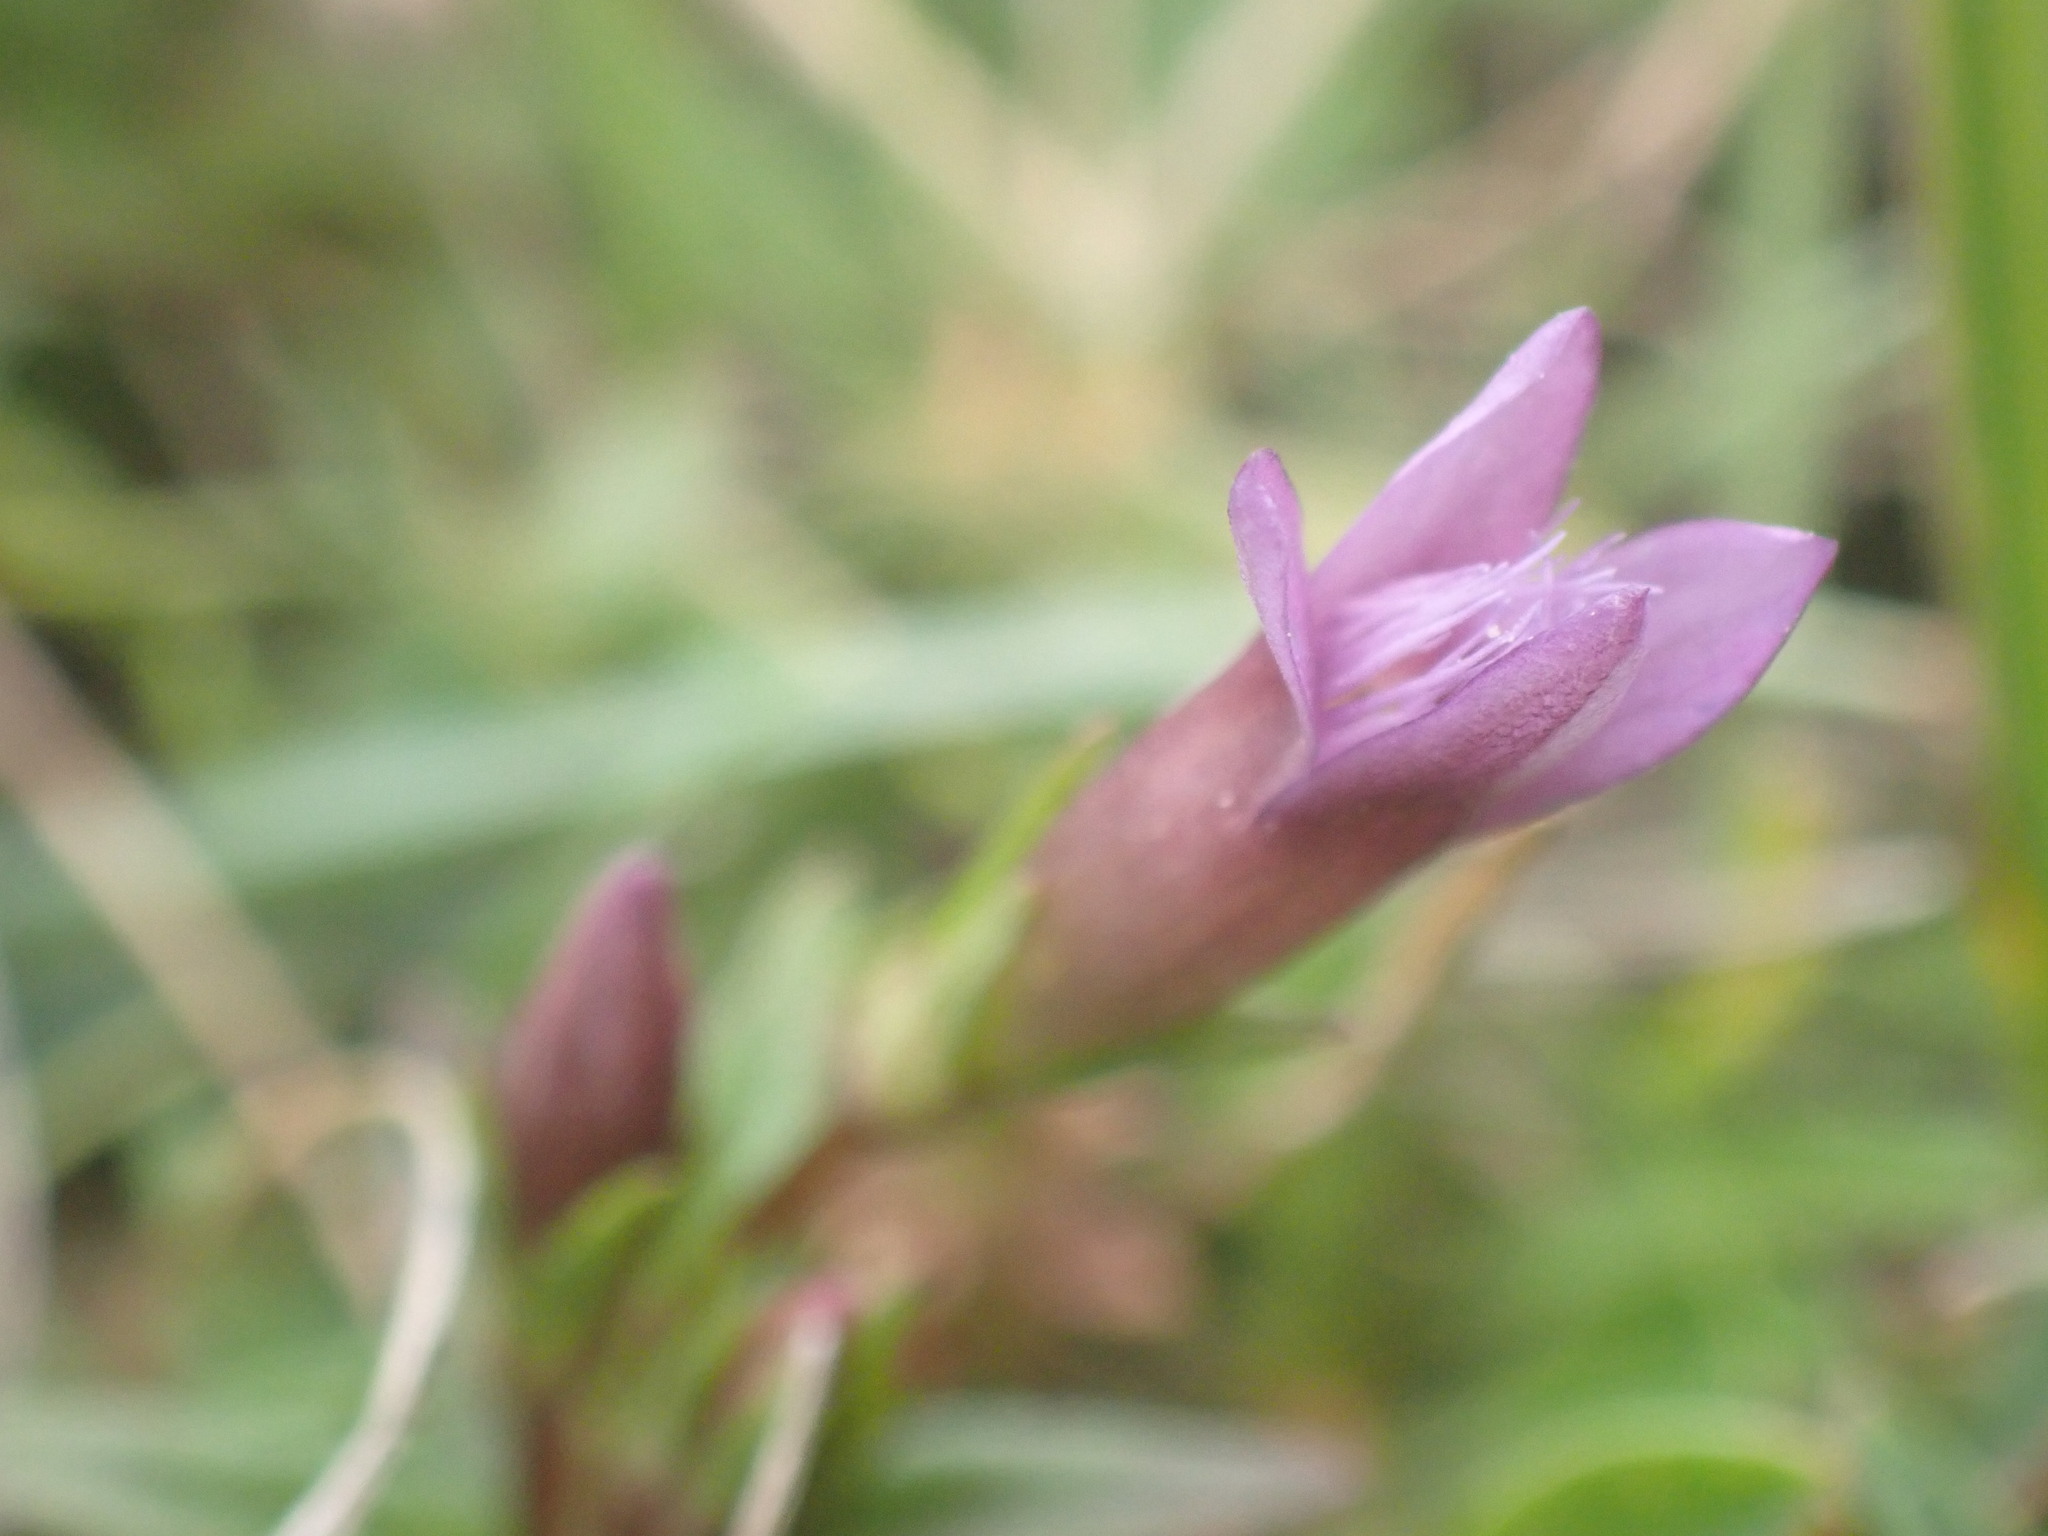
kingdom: Plantae
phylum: Tracheophyta
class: Magnoliopsida
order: Gentianales
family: Gentianaceae
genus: Gentianella
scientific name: Gentianella amarella
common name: Autumn gentian
